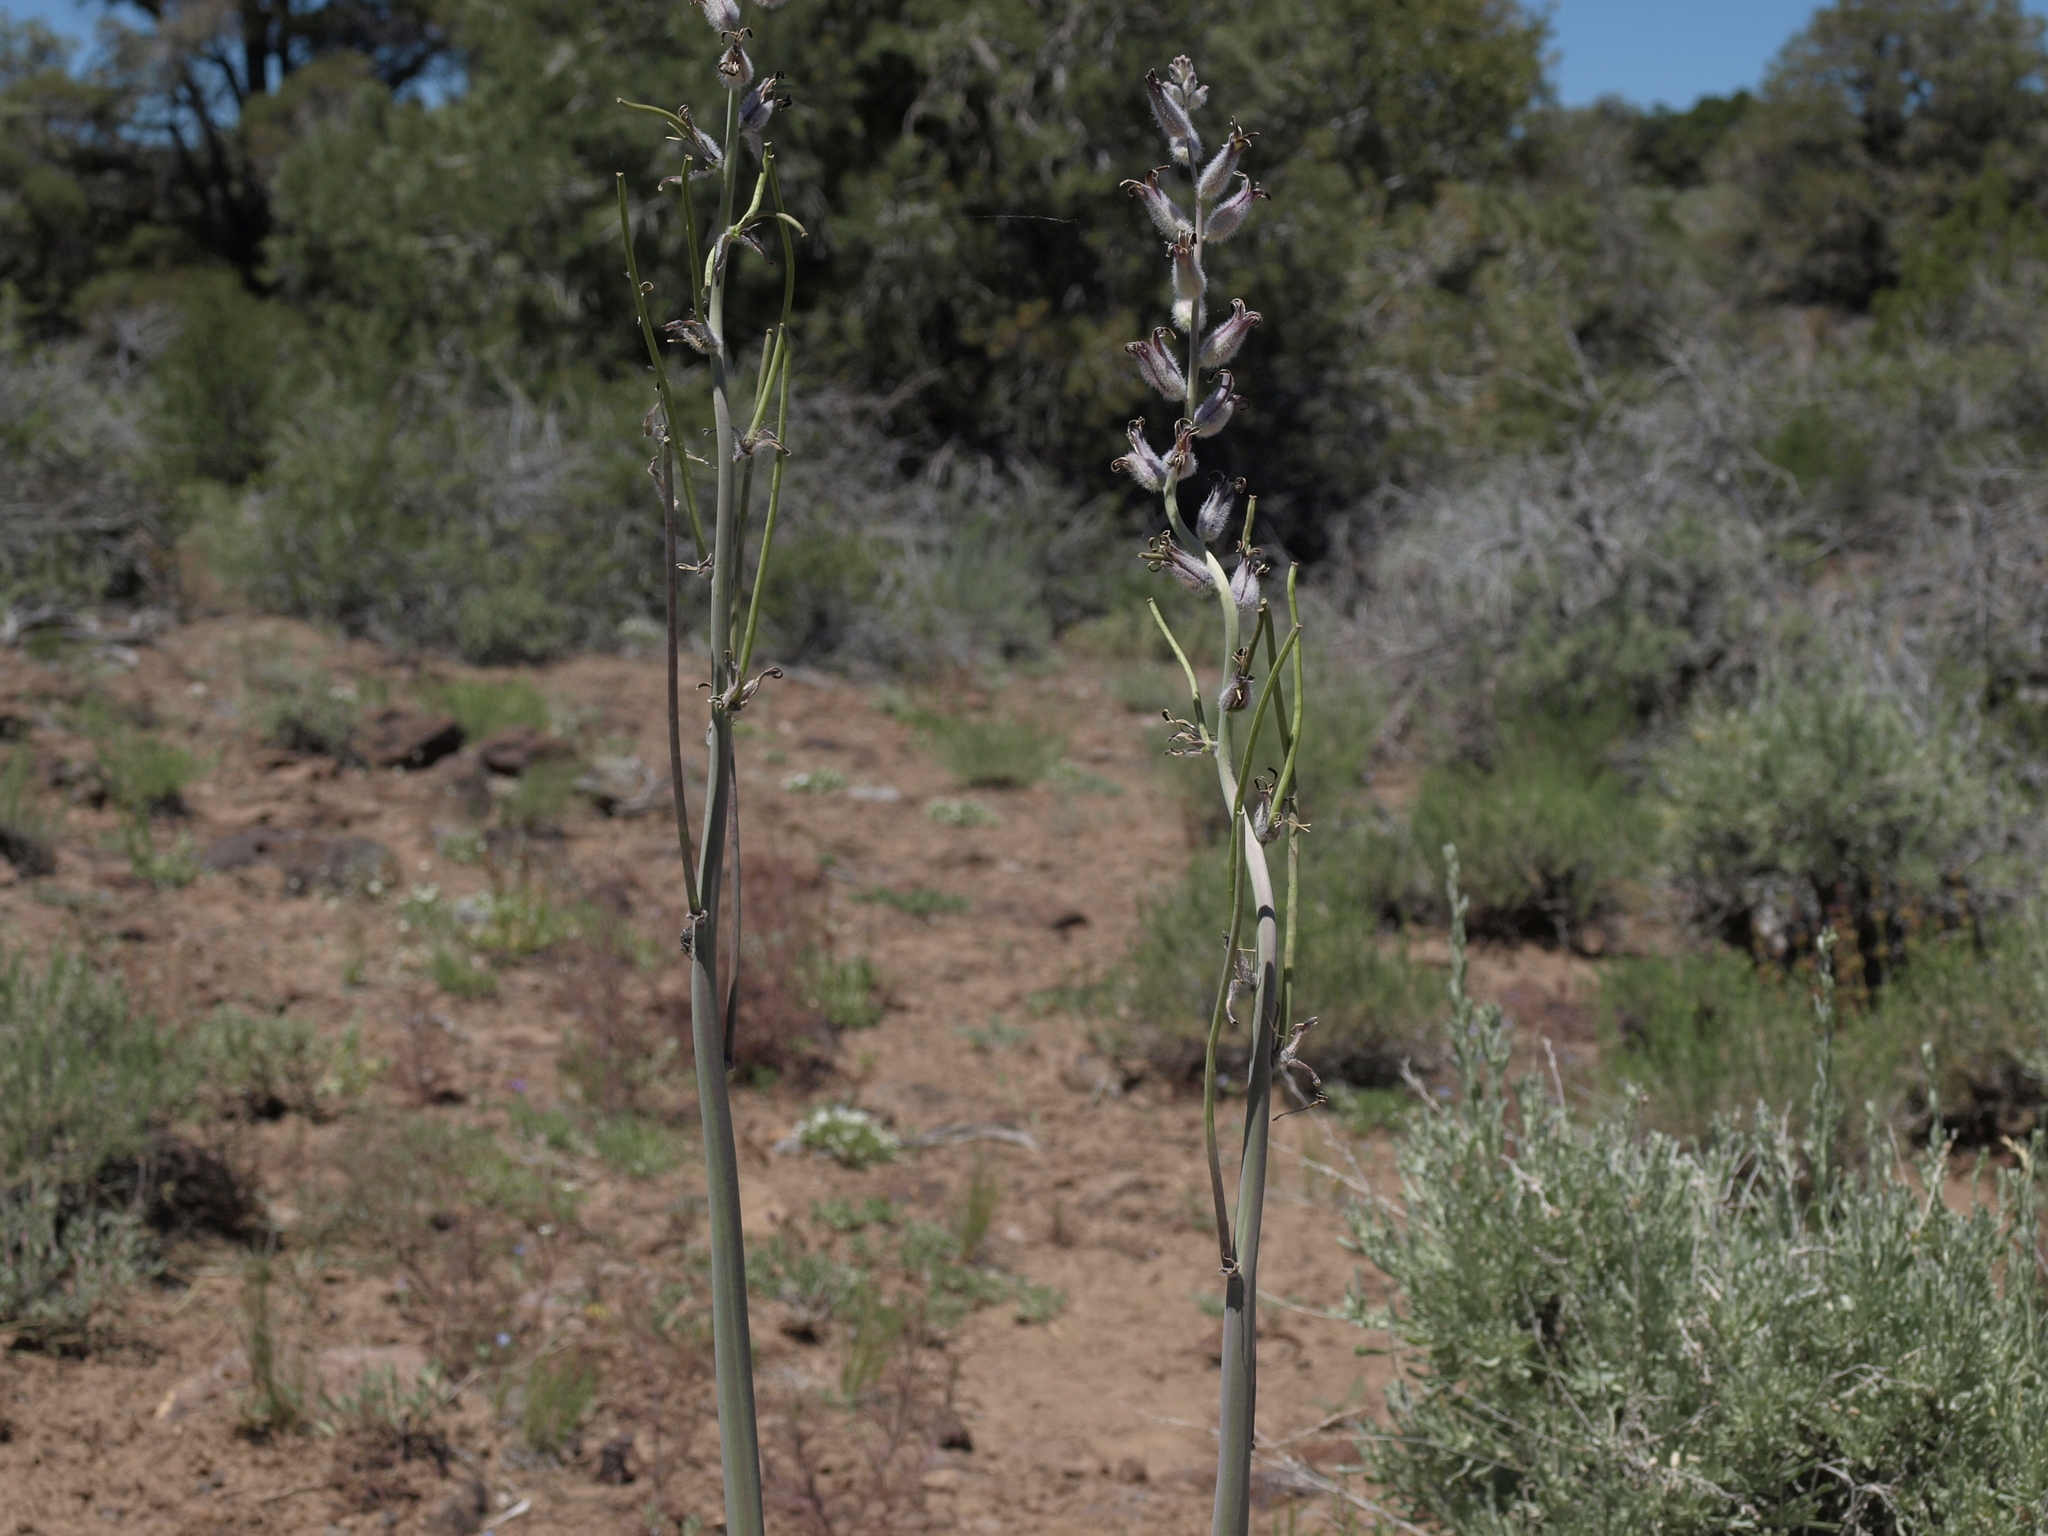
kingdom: Plantae
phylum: Tracheophyta
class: Magnoliopsida
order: Brassicales
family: Brassicaceae
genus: Streptanthus
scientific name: Streptanthus crassicaulis
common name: Thick-stem wild cabbage
